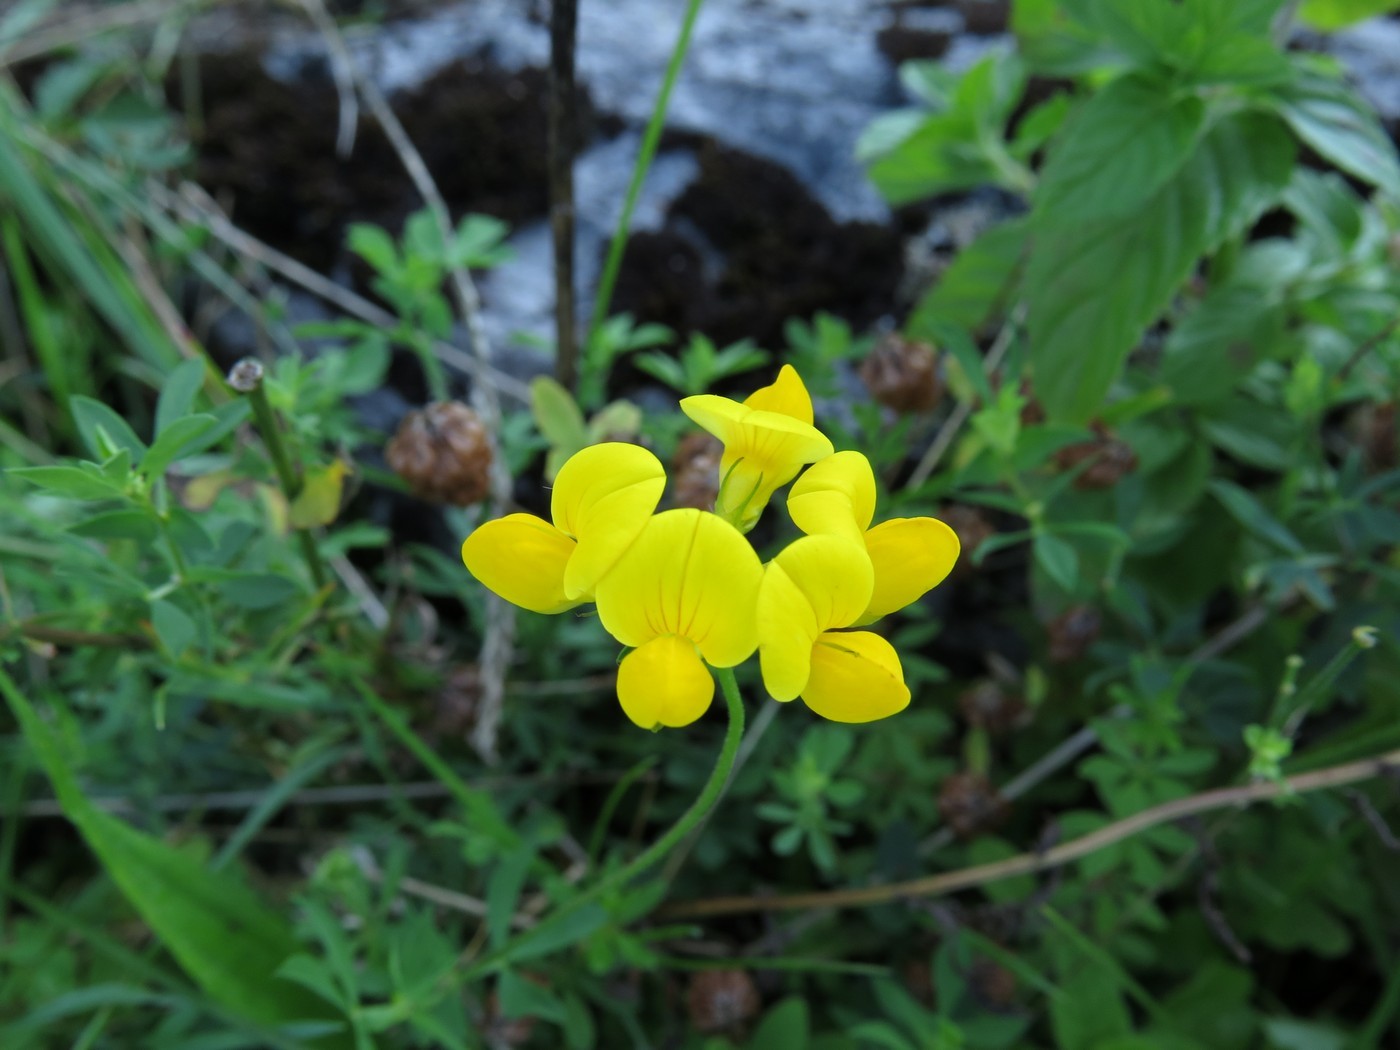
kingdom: Plantae
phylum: Tracheophyta
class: Magnoliopsida
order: Fabales
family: Fabaceae
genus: Lotus
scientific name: Lotus corniculatus
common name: Common bird's-foot-trefoil
